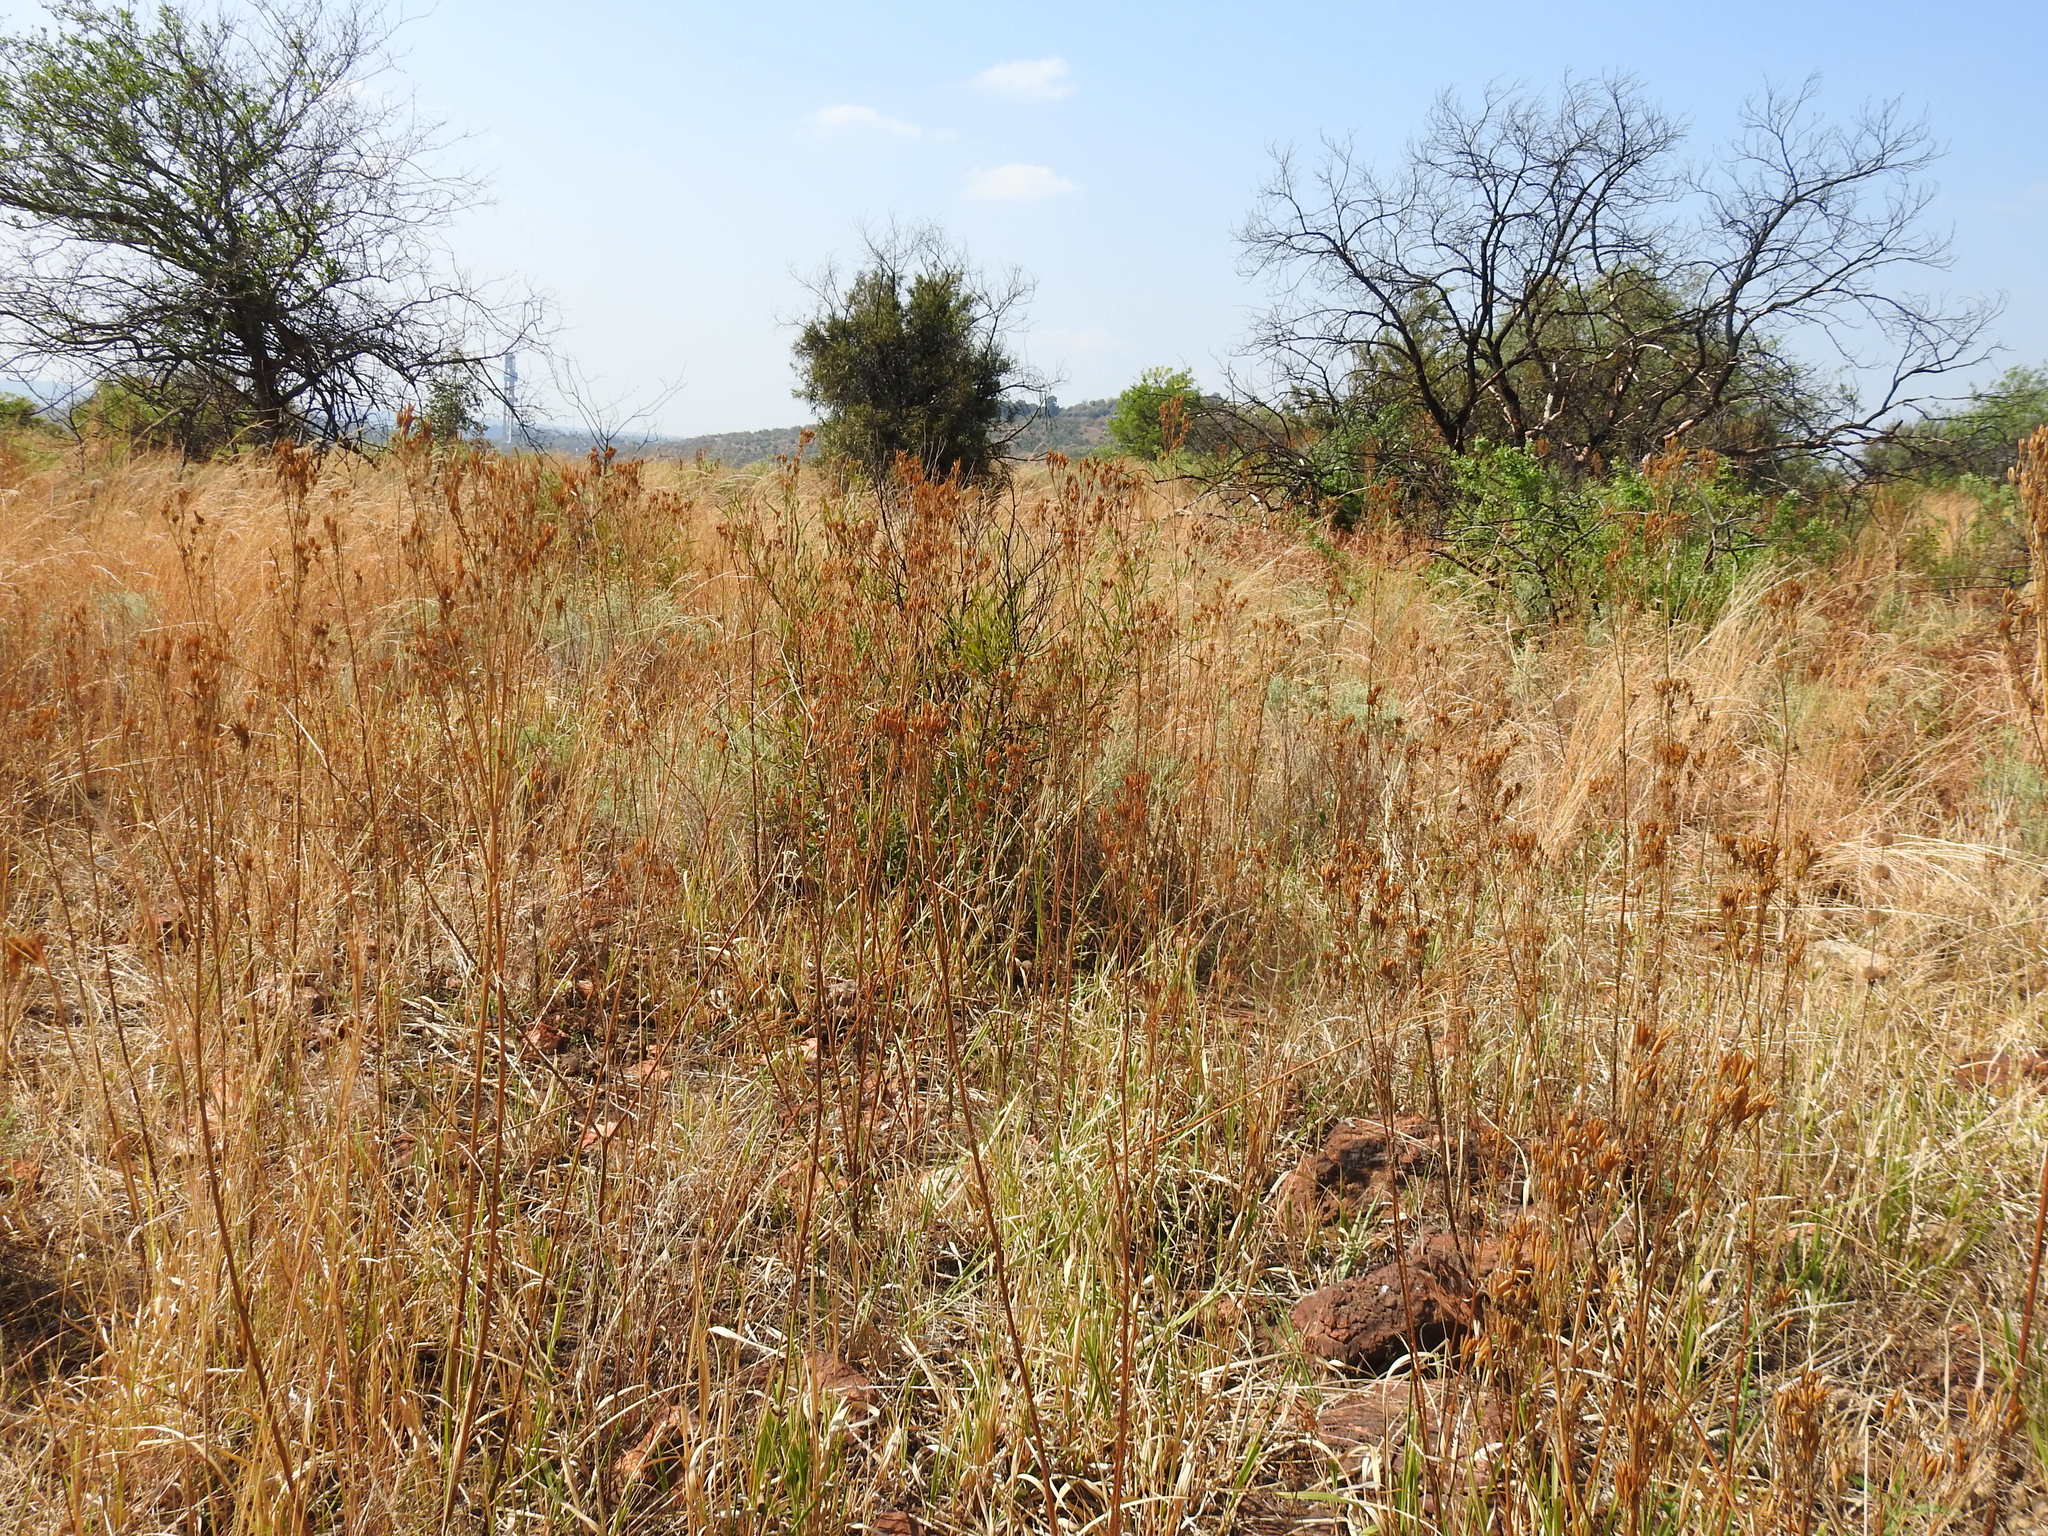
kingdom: Plantae
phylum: Tracheophyta
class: Magnoliopsida
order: Asterales
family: Asteraceae
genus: Tagetes
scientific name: Tagetes minuta
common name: Muster john henry
